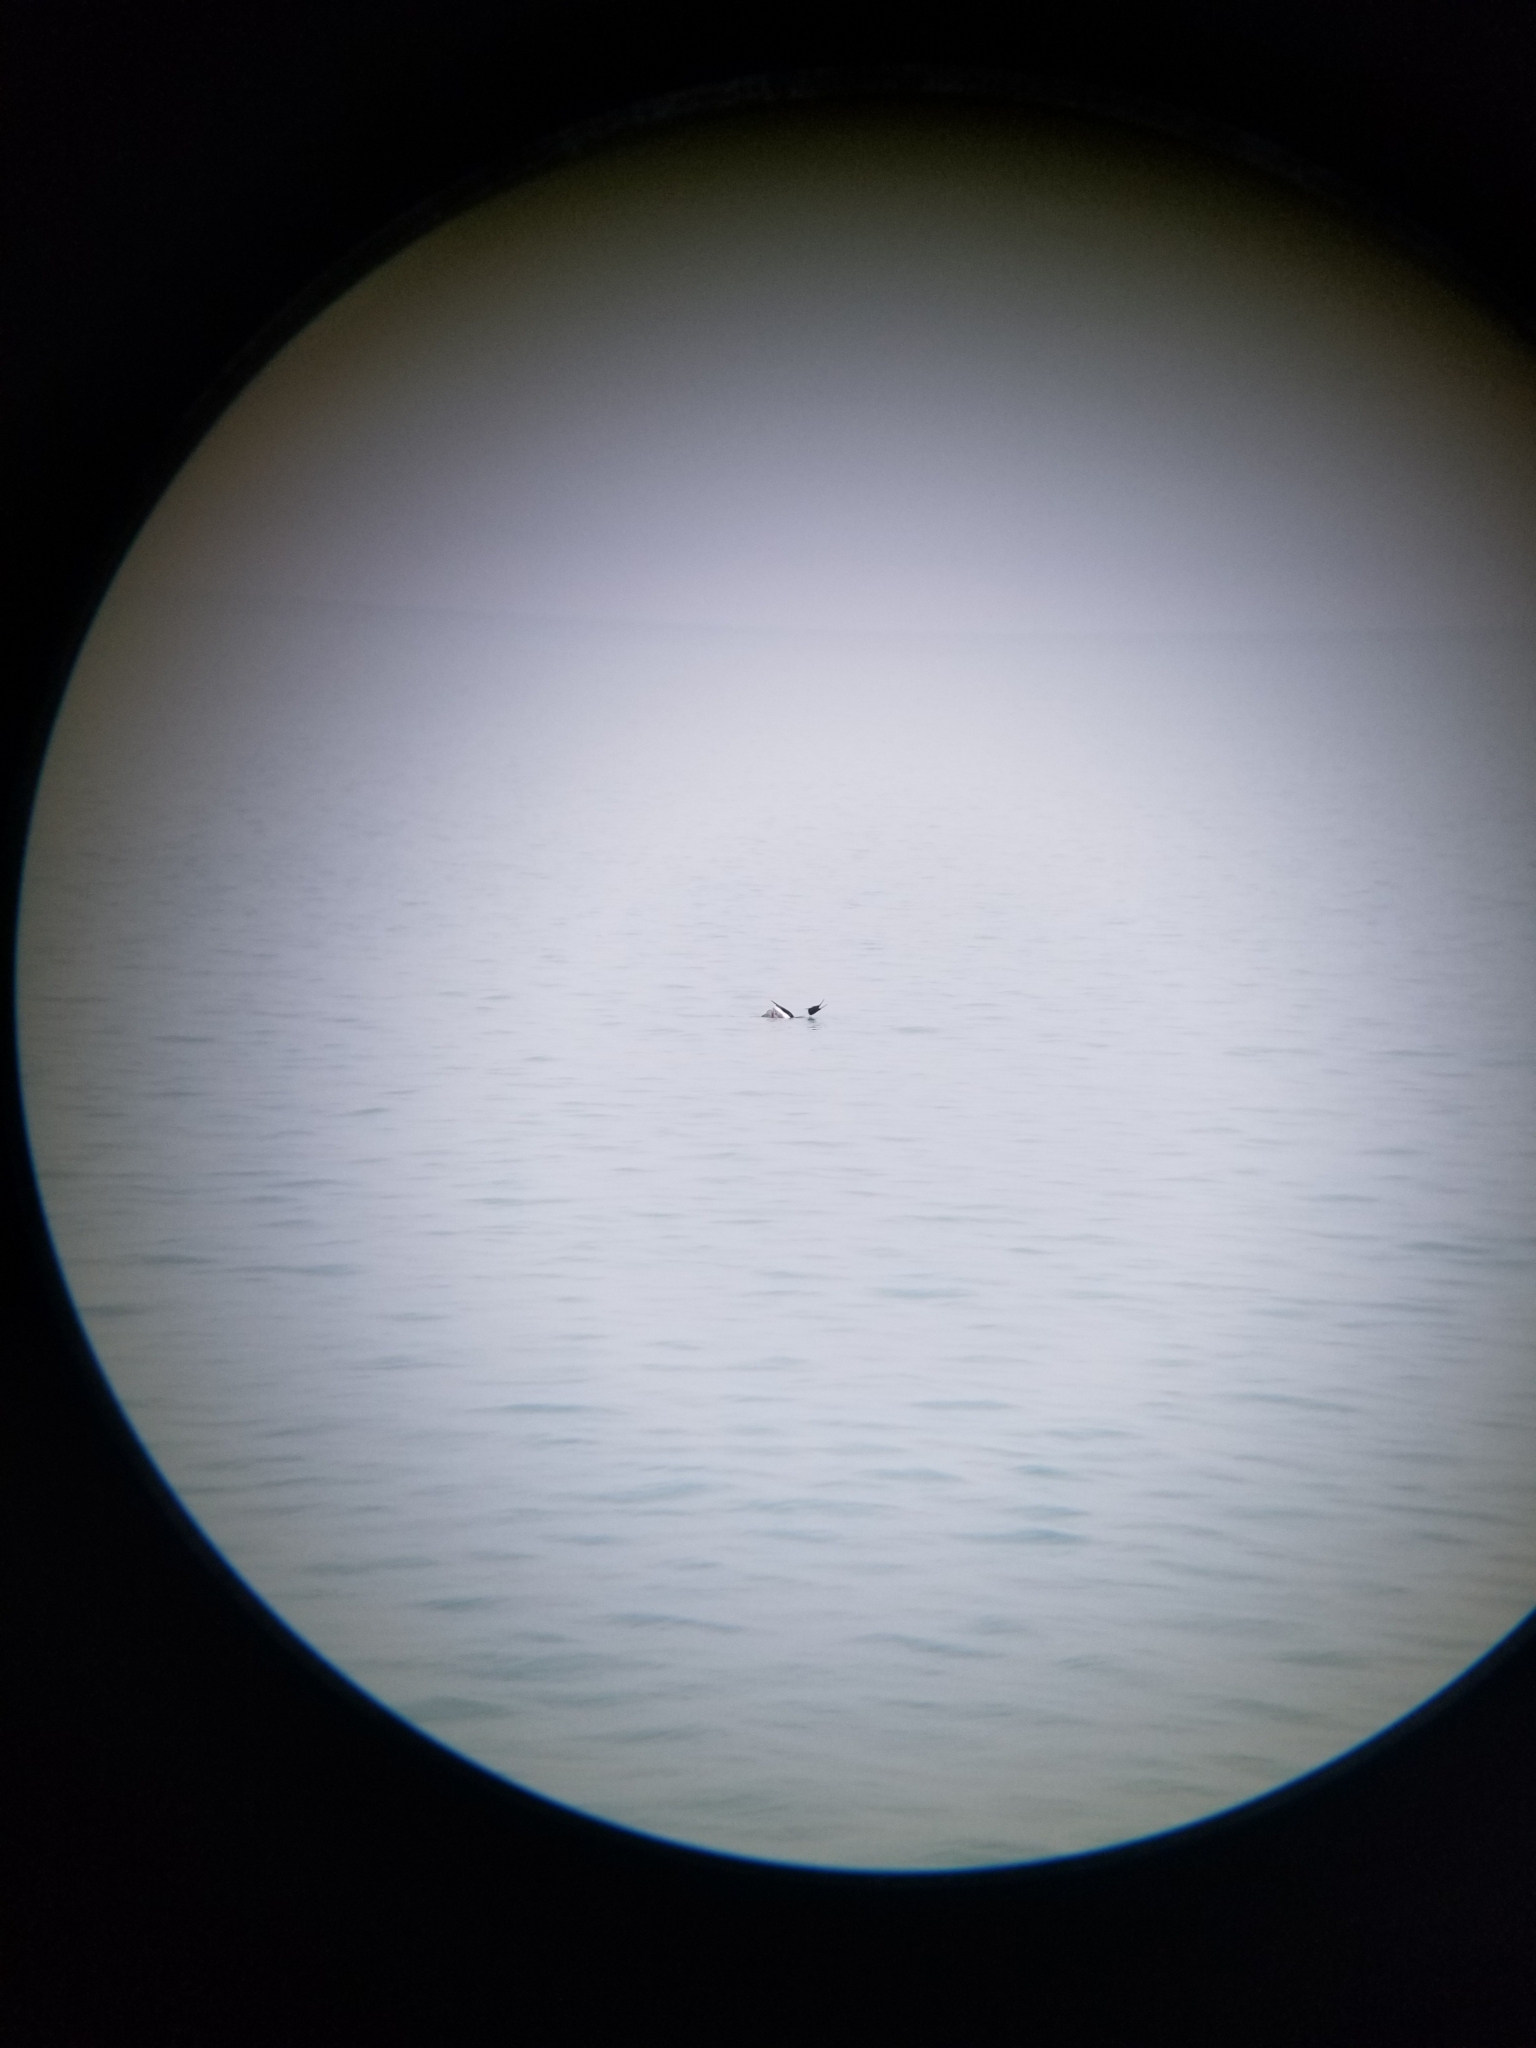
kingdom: Animalia
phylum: Chordata
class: Aves
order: Anseriformes
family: Anatidae
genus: Mergus
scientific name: Mergus serrator
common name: Red-breasted merganser
